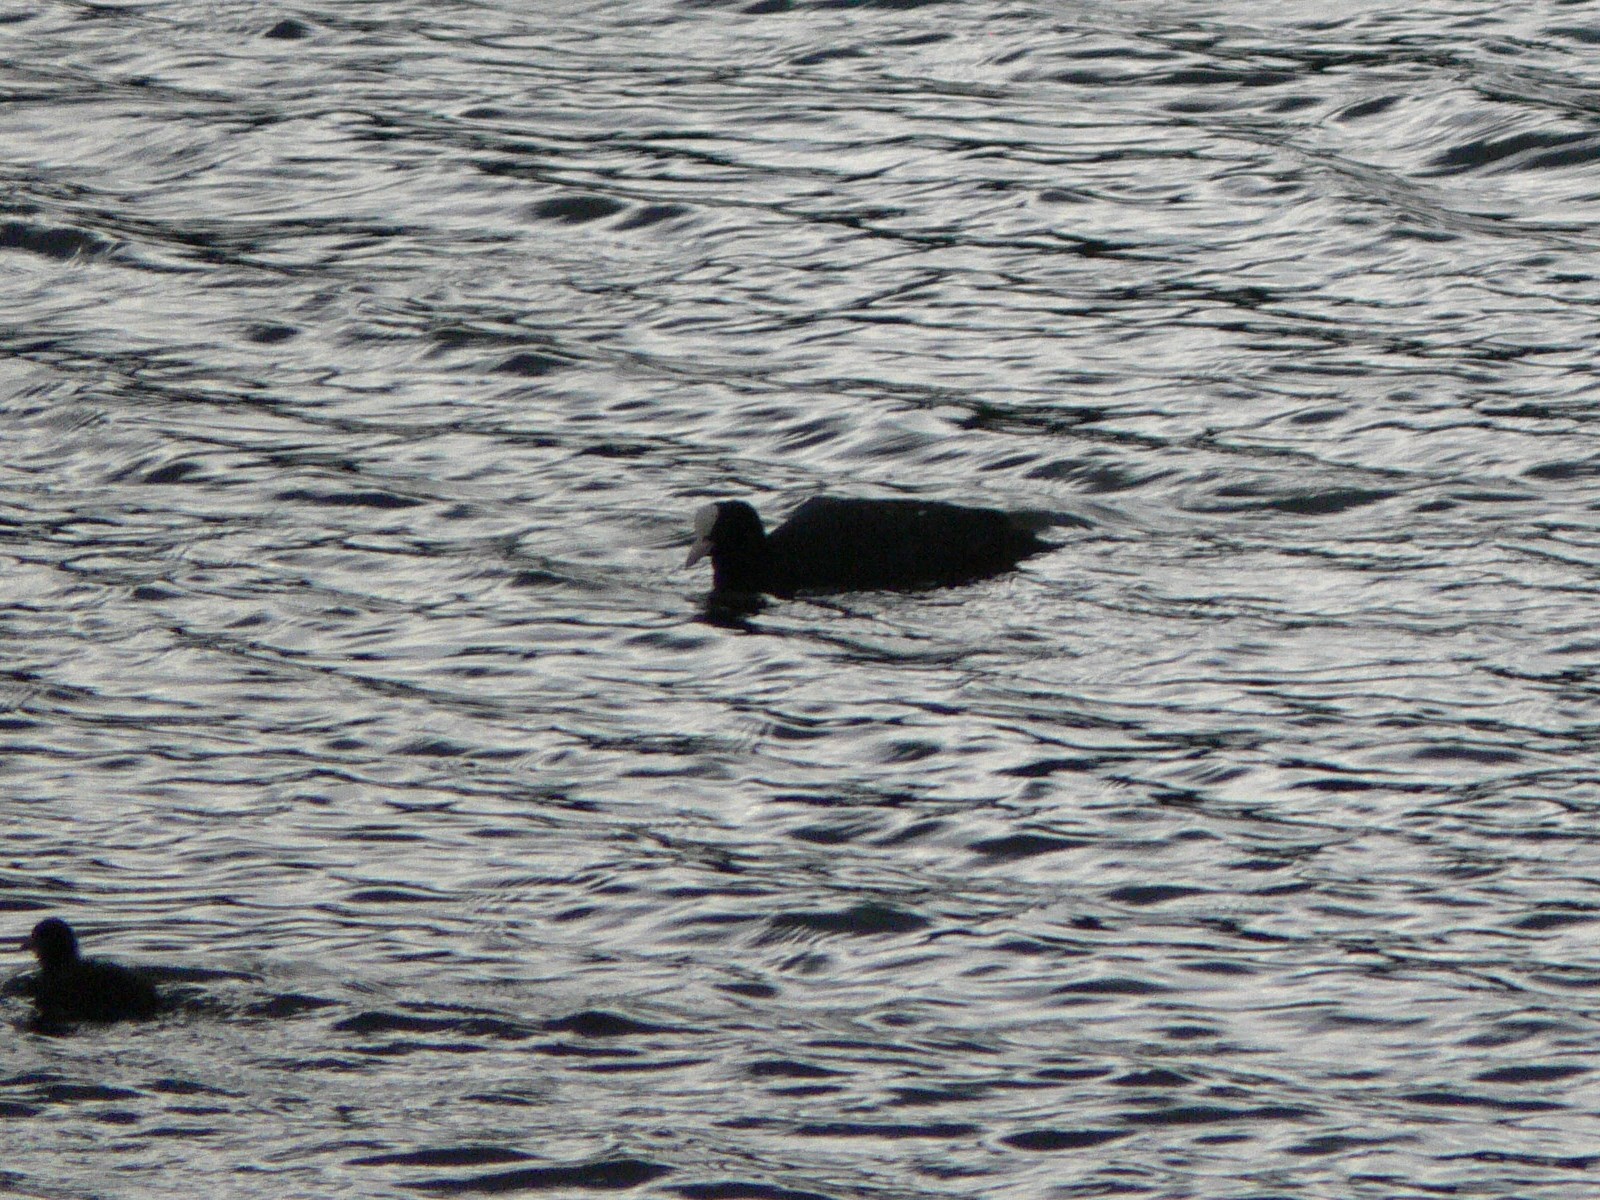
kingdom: Animalia
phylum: Chordata
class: Aves
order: Gruiformes
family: Rallidae
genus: Fulica
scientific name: Fulica atra
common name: Eurasian coot
